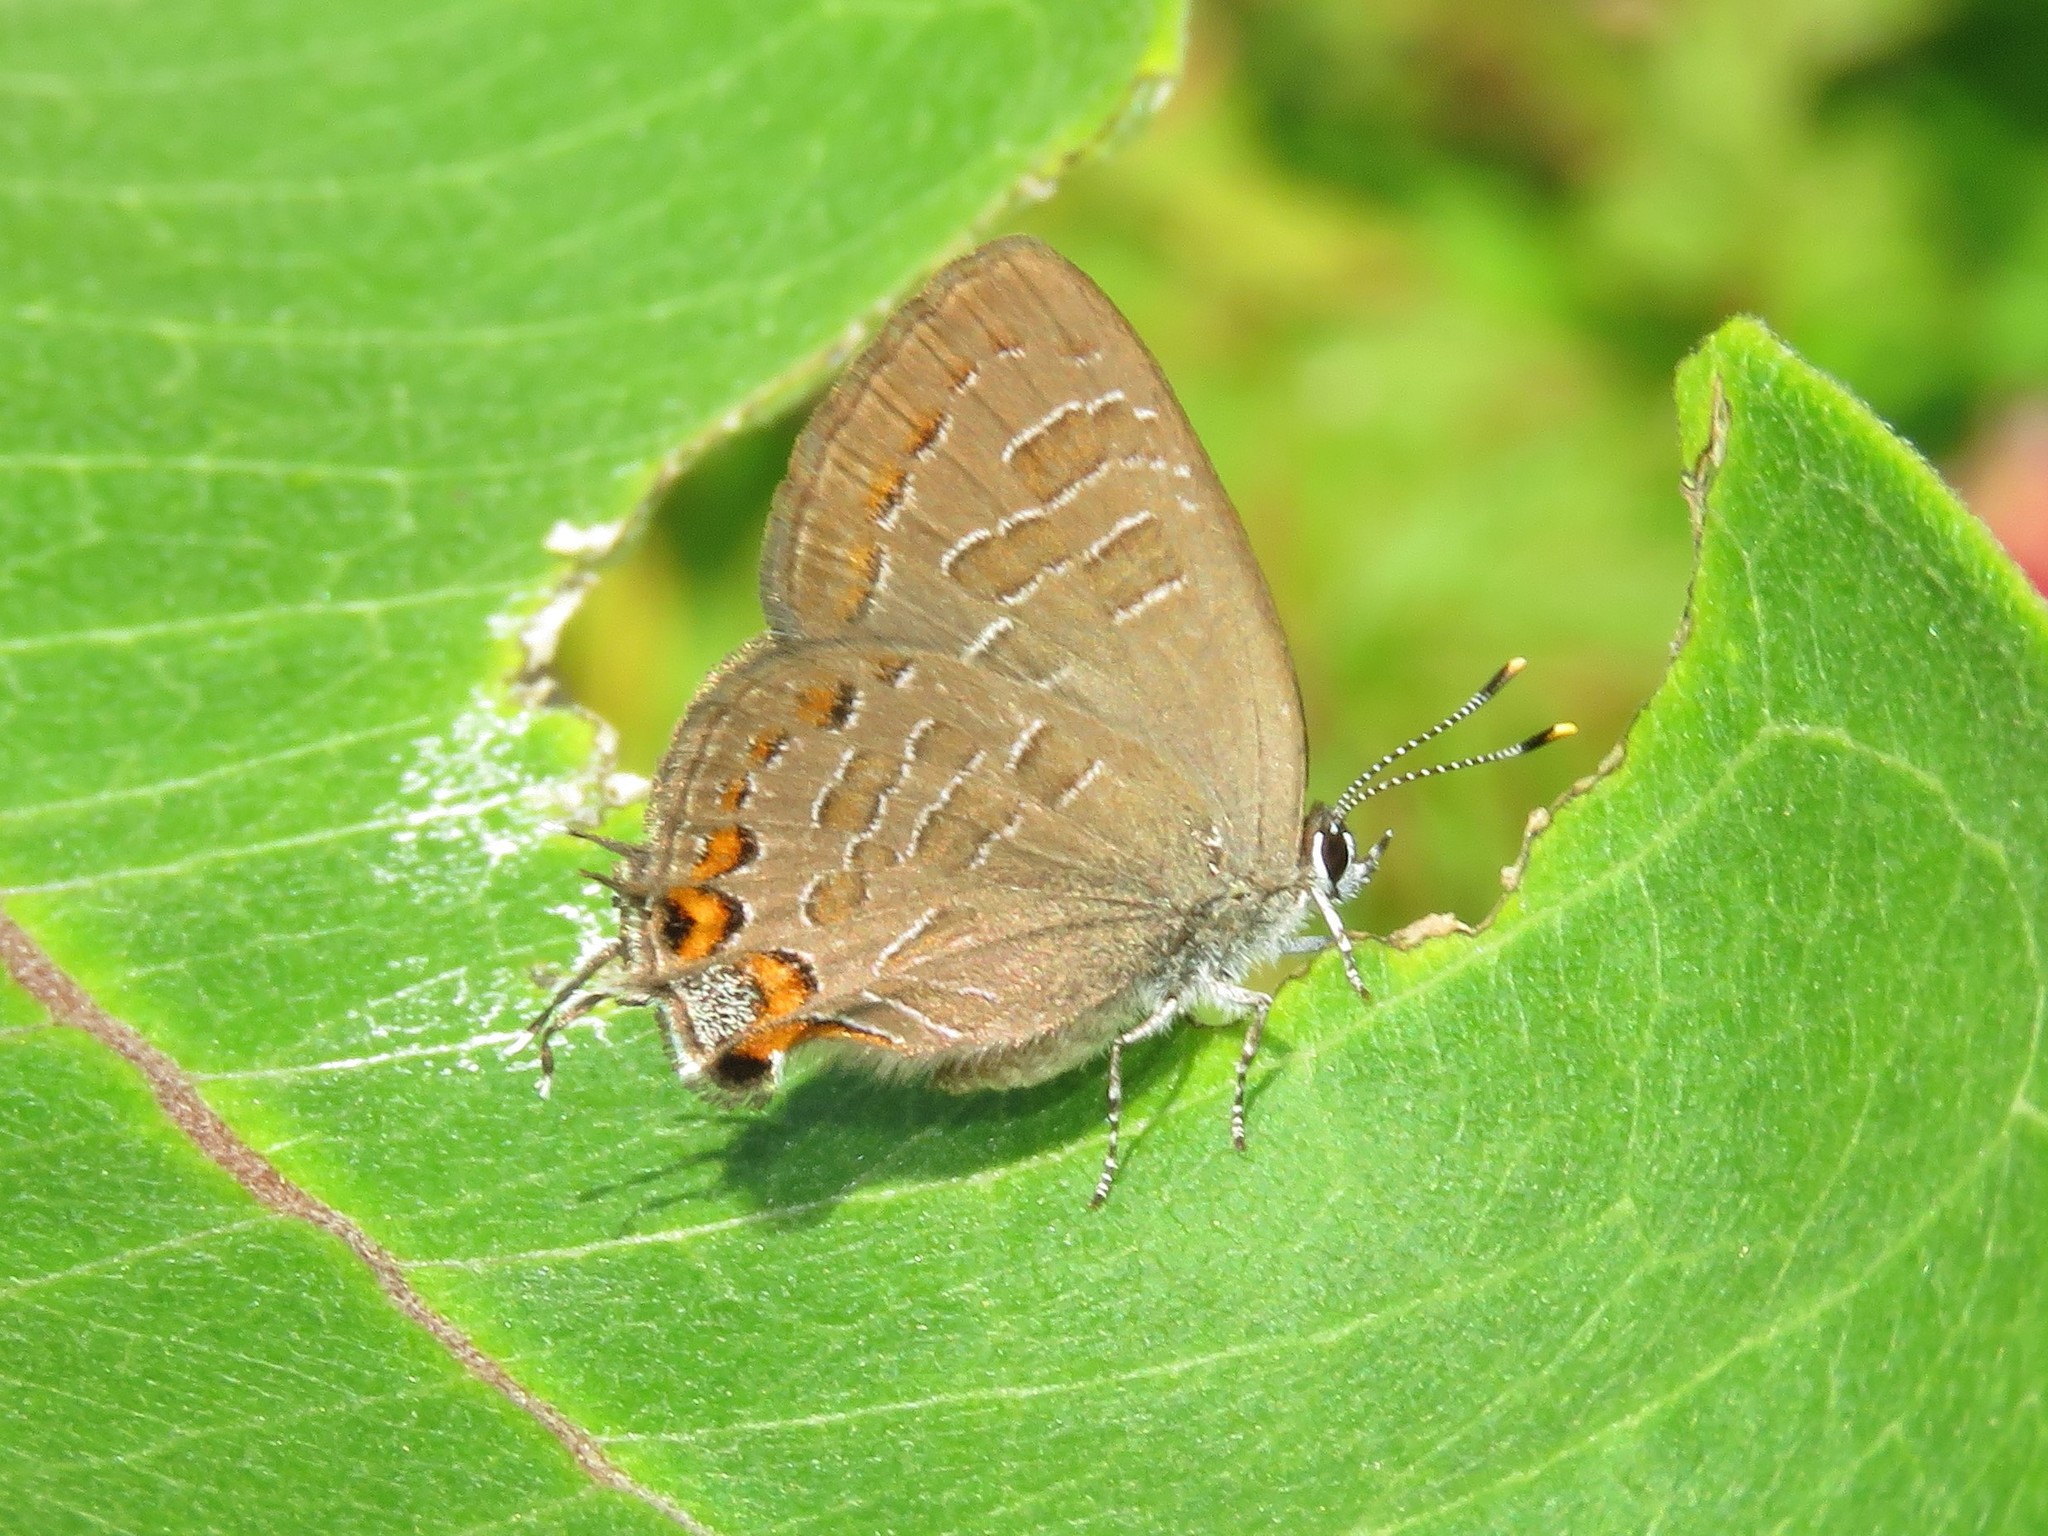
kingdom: Animalia
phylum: Arthropoda
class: Insecta
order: Lepidoptera
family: Lycaenidae
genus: Satyrium
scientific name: Satyrium liparops
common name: Striped hairstreak
